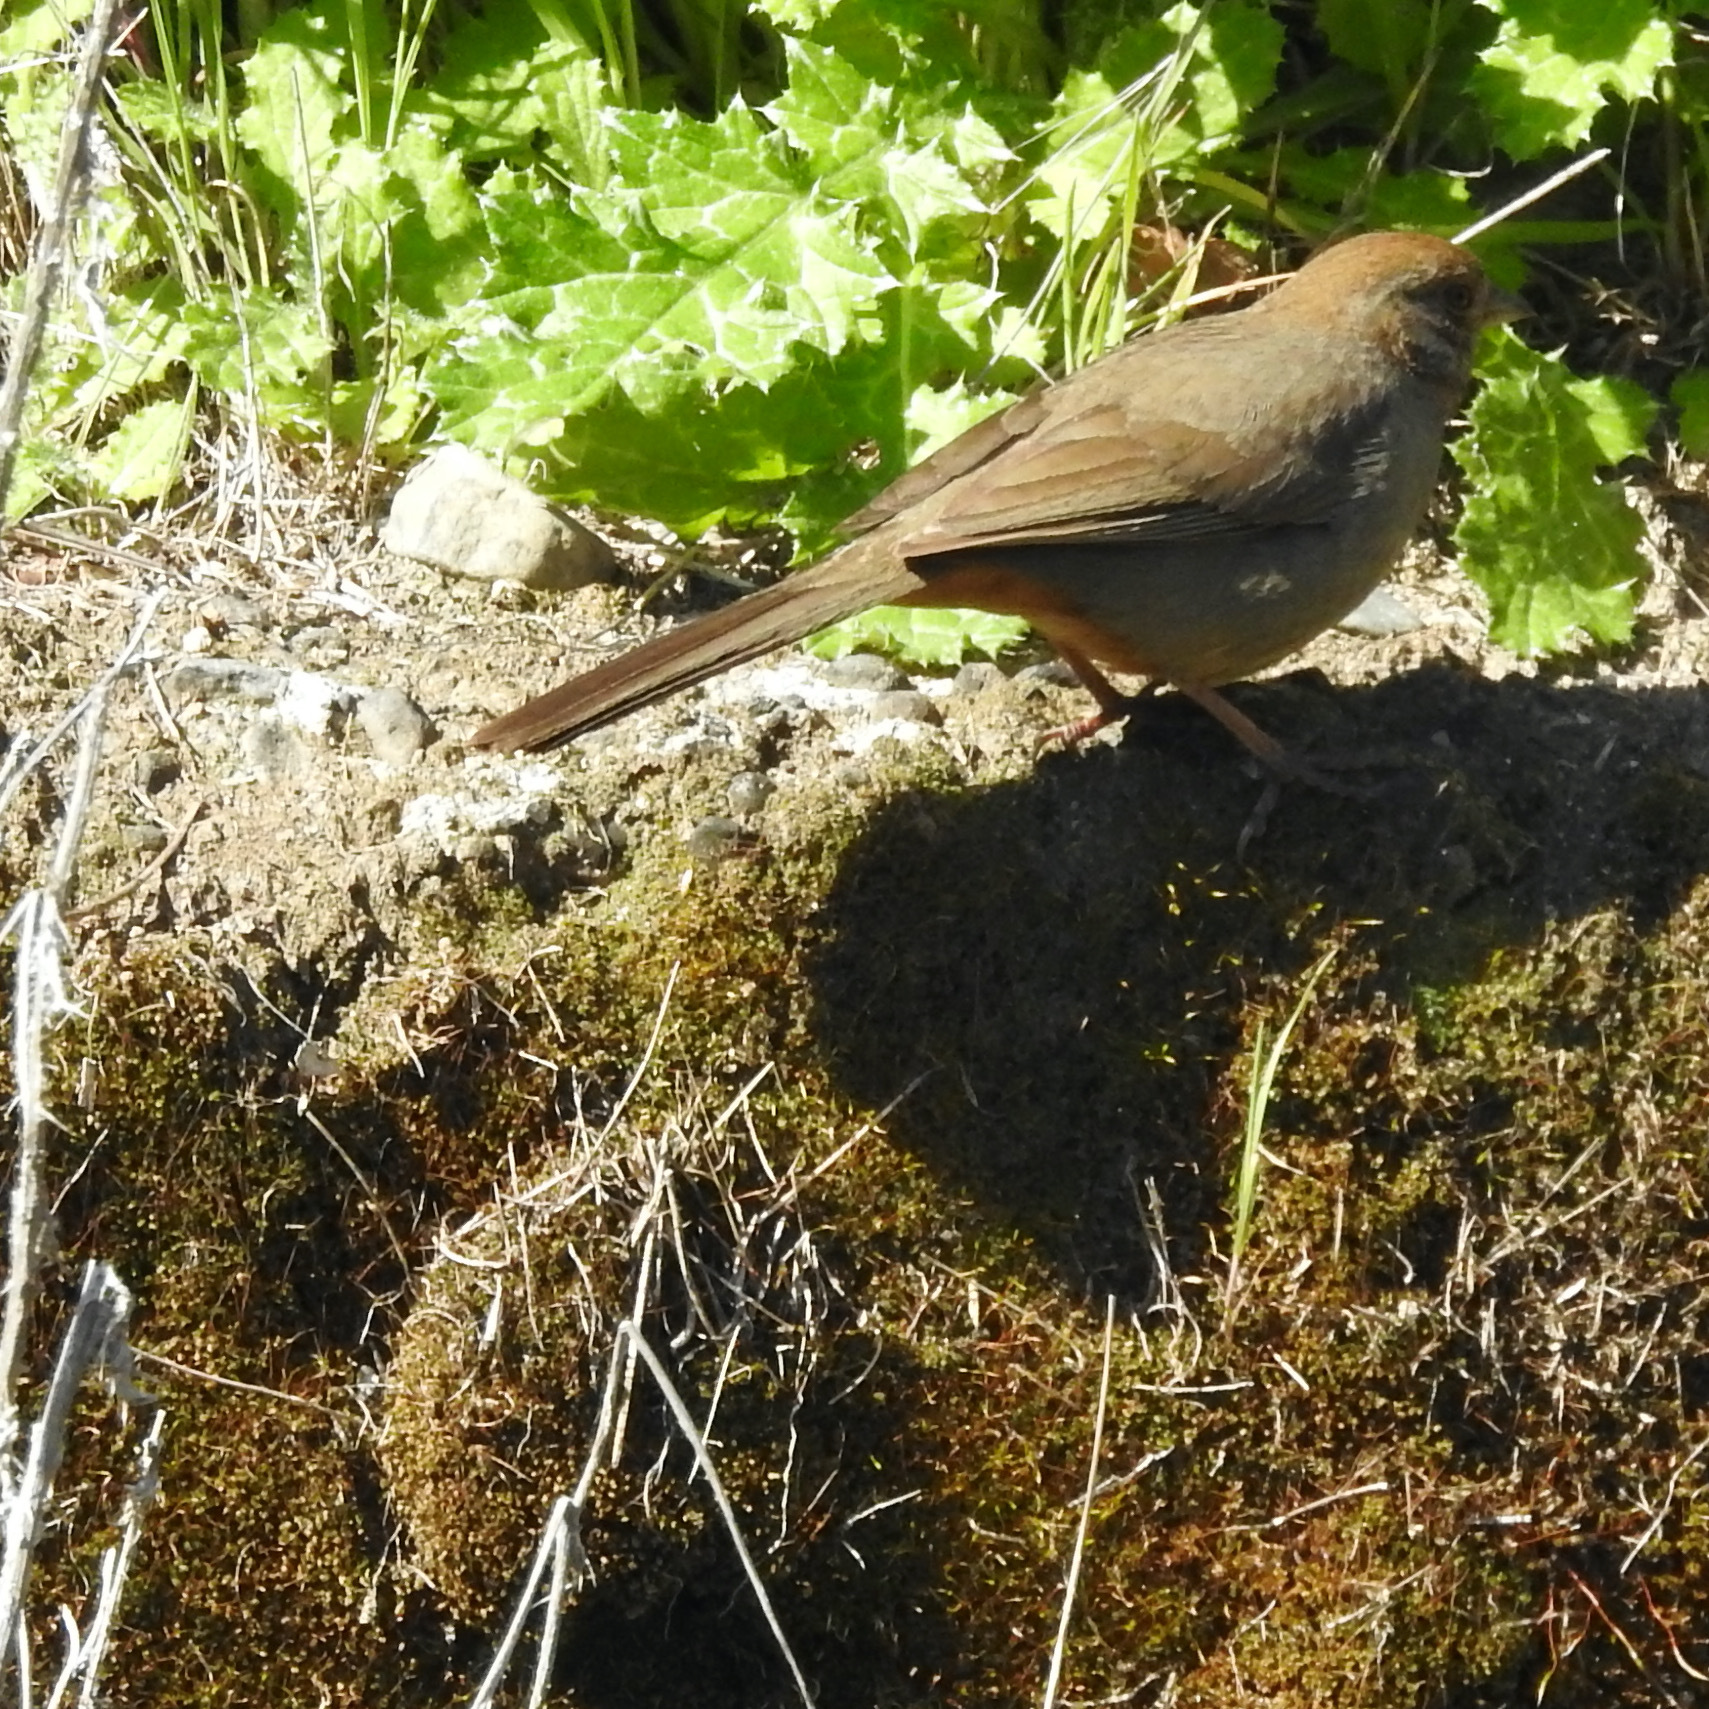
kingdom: Animalia
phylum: Chordata
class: Aves
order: Passeriformes
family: Passerellidae
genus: Melozone
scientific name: Melozone crissalis
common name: California towhee
